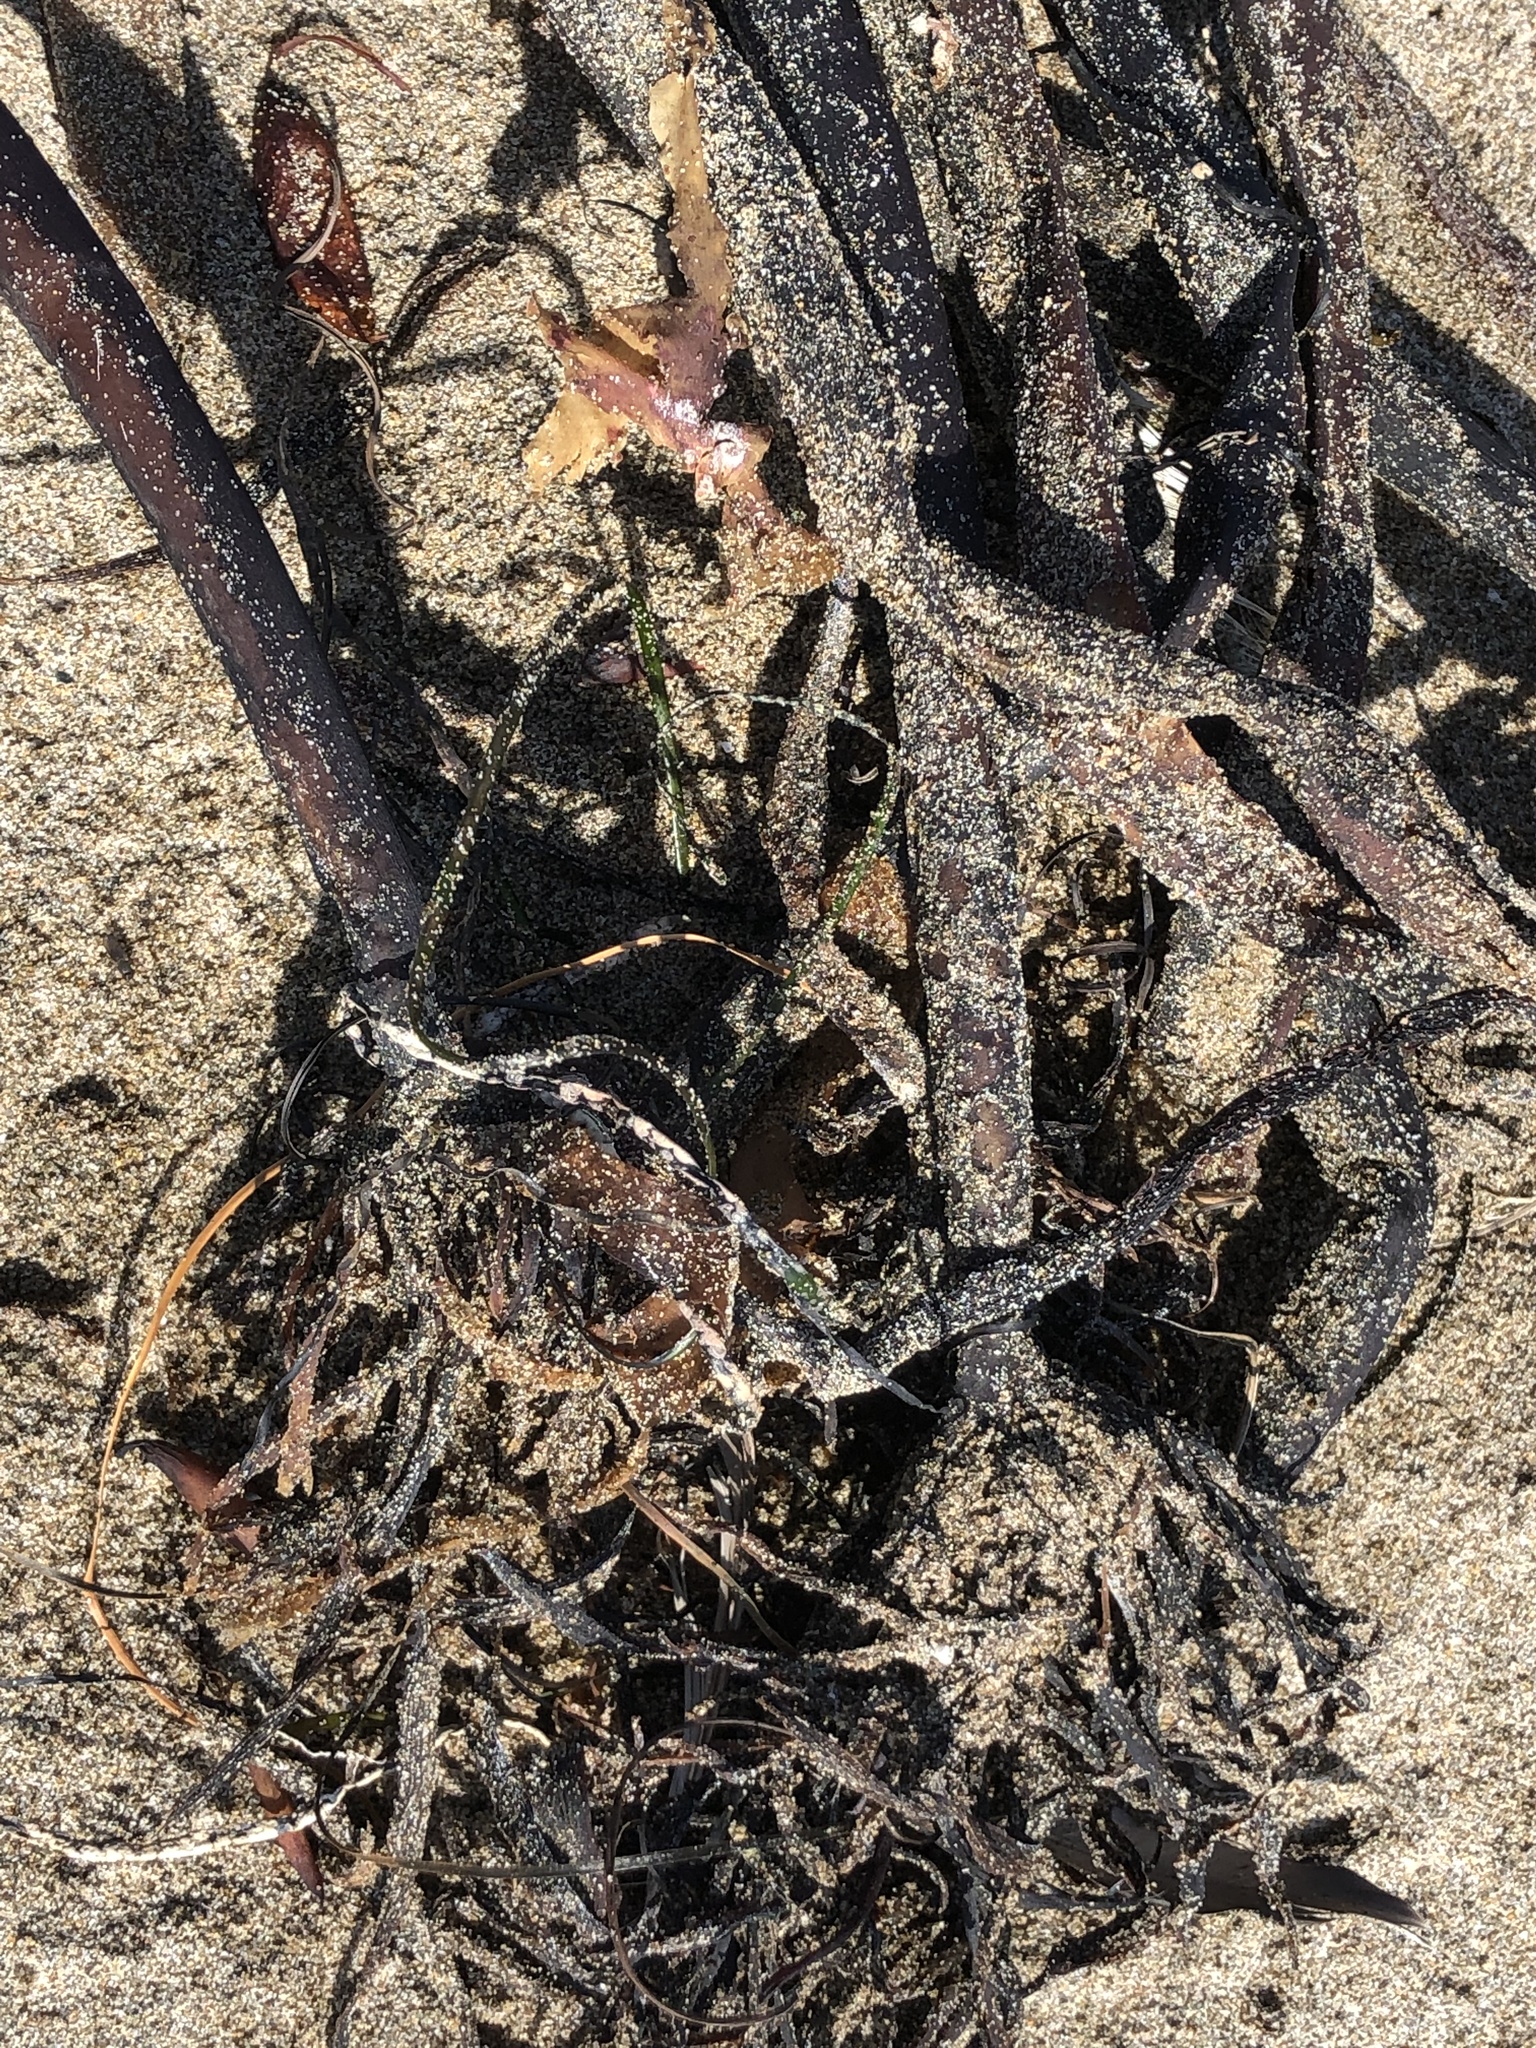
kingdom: Chromista
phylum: Ochrophyta
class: Phaeophyceae
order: Laminariales
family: Laminariaceae
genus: Postelsia
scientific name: Postelsia palmiformis
